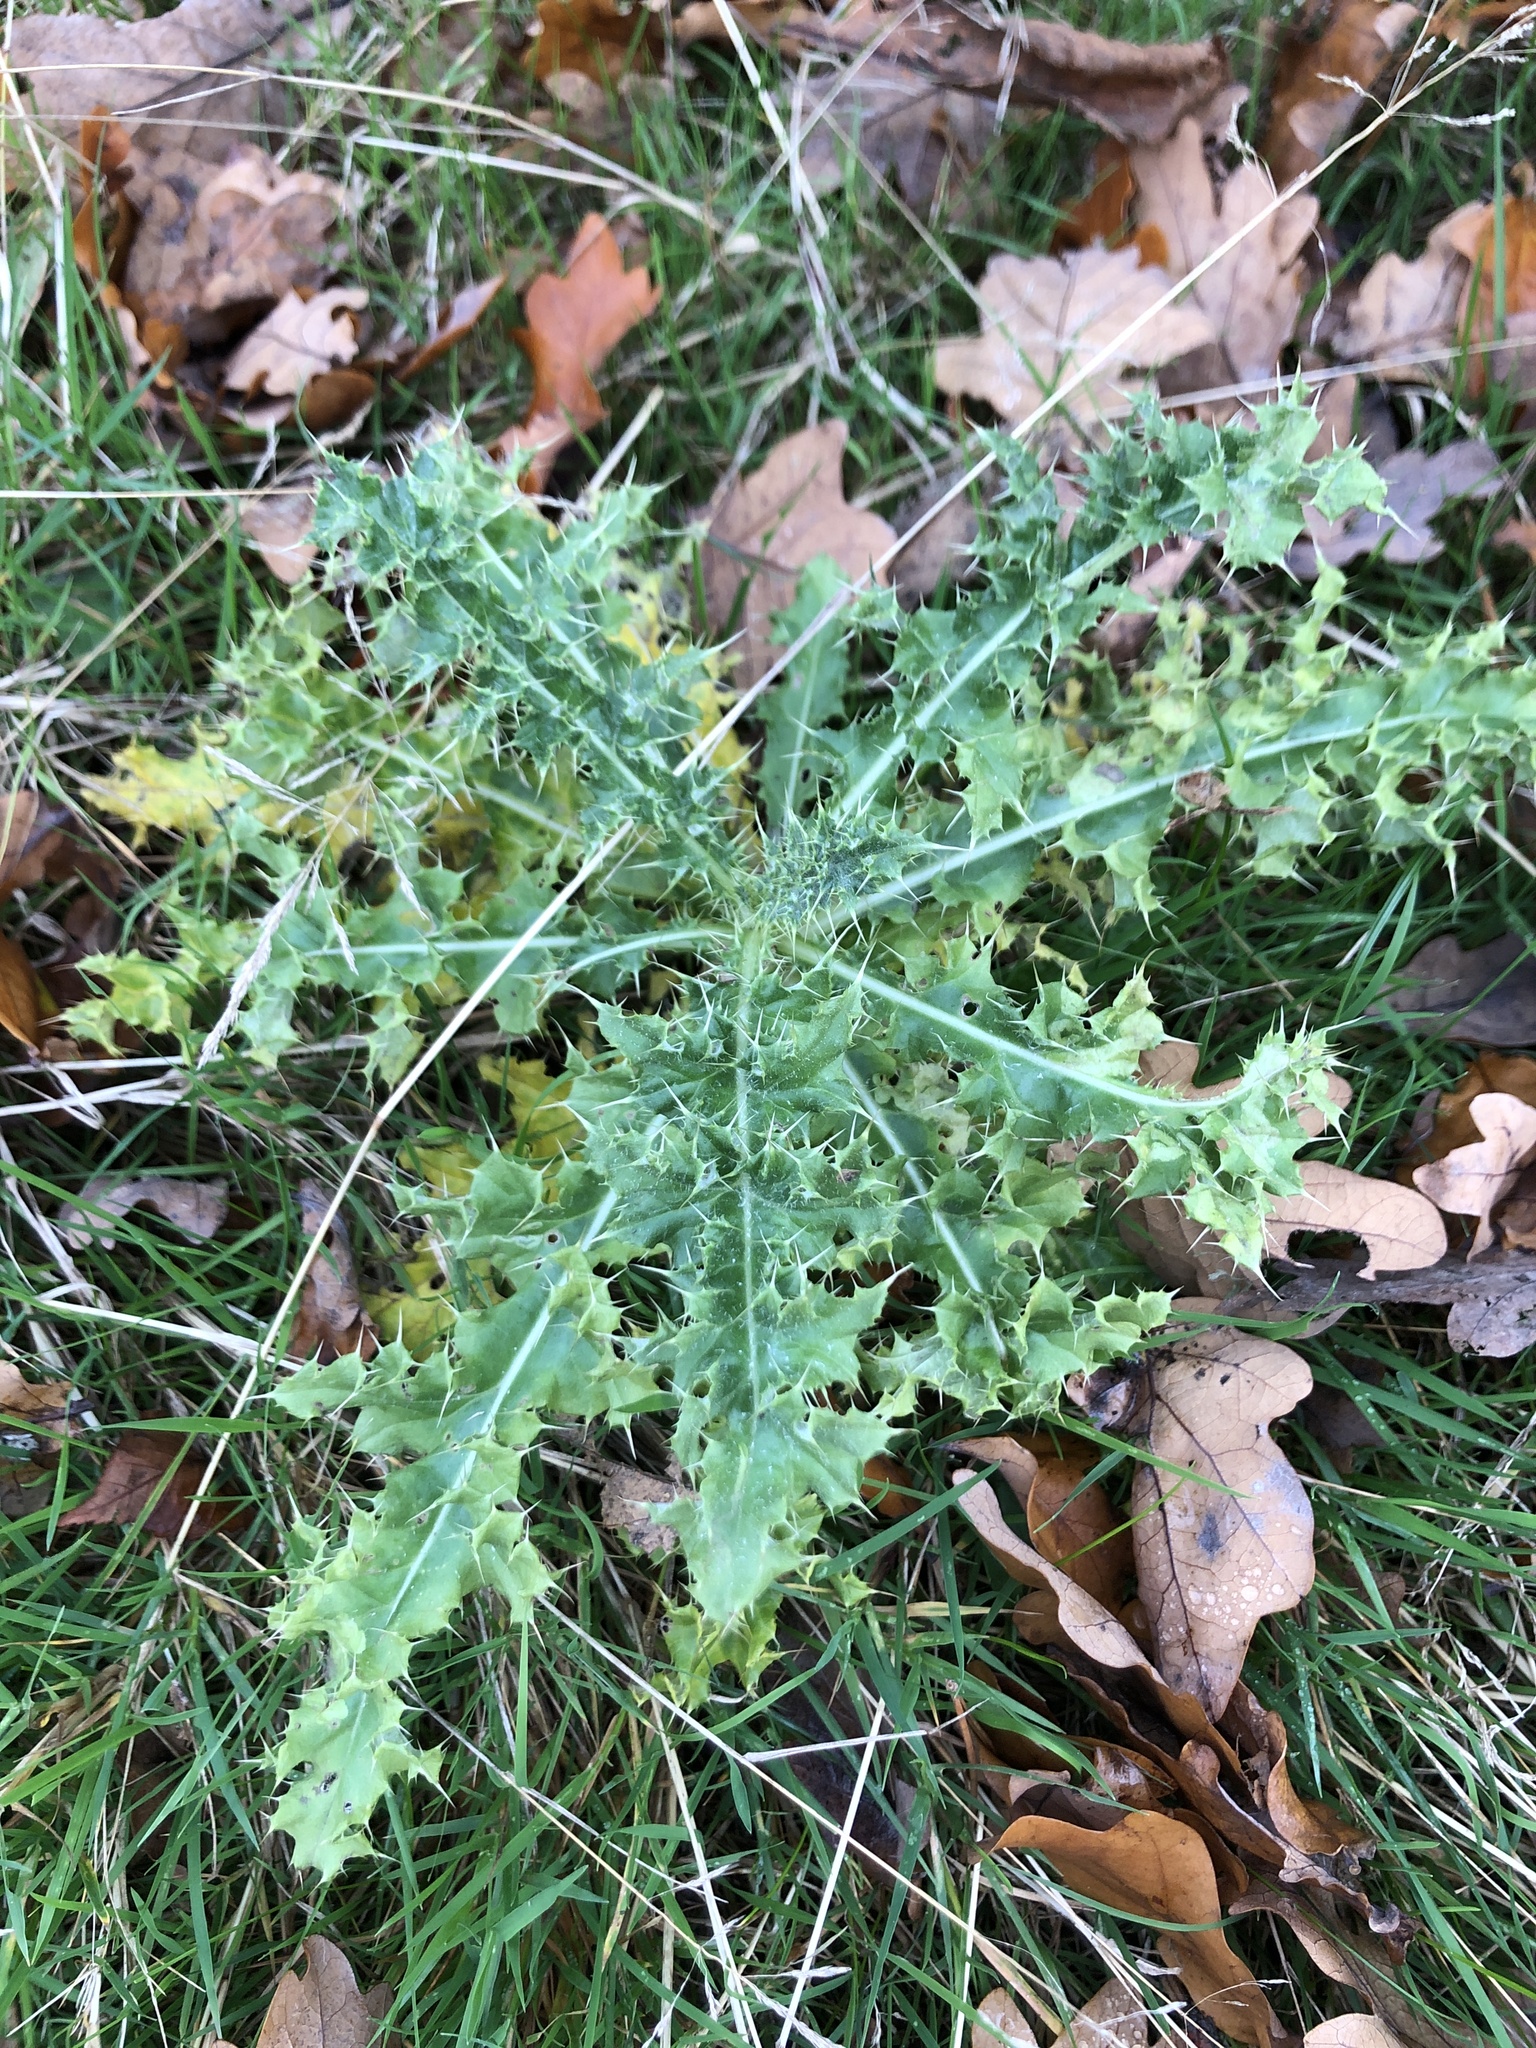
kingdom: Plantae
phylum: Tracheophyta
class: Magnoliopsida
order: Asterales
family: Asteraceae
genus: Cirsium
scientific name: Cirsium arvense
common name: Creeping thistle
